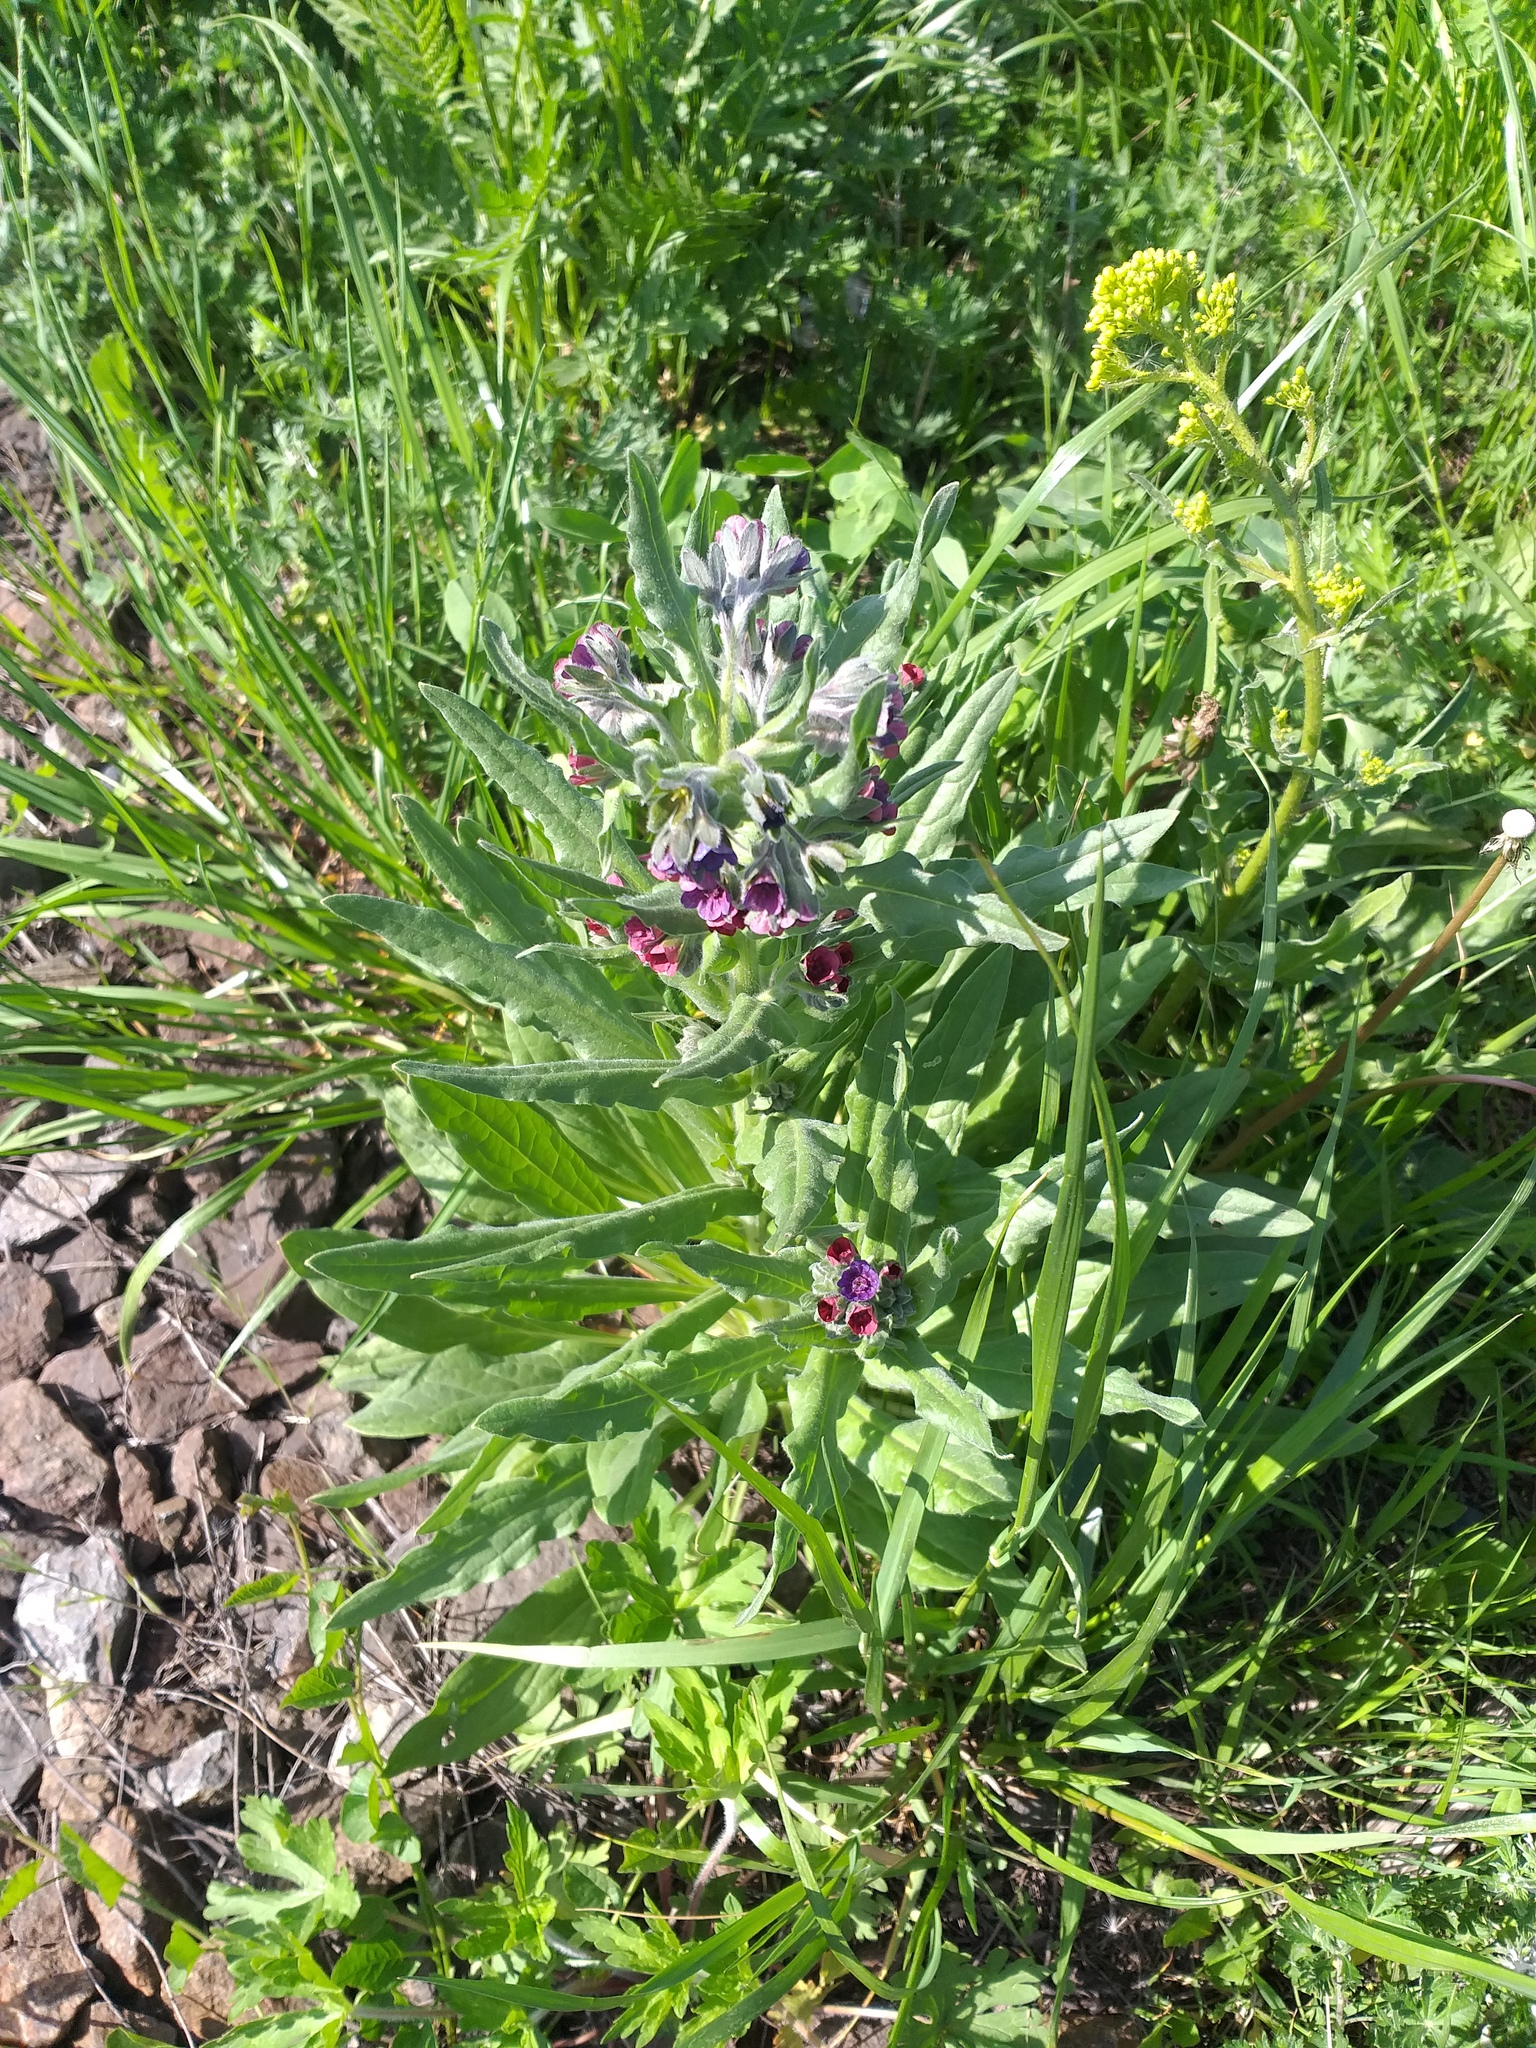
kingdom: Plantae
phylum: Tracheophyta
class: Magnoliopsida
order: Boraginales
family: Boraginaceae
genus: Cynoglossum
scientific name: Cynoglossum officinale
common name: Hound's-tongue
